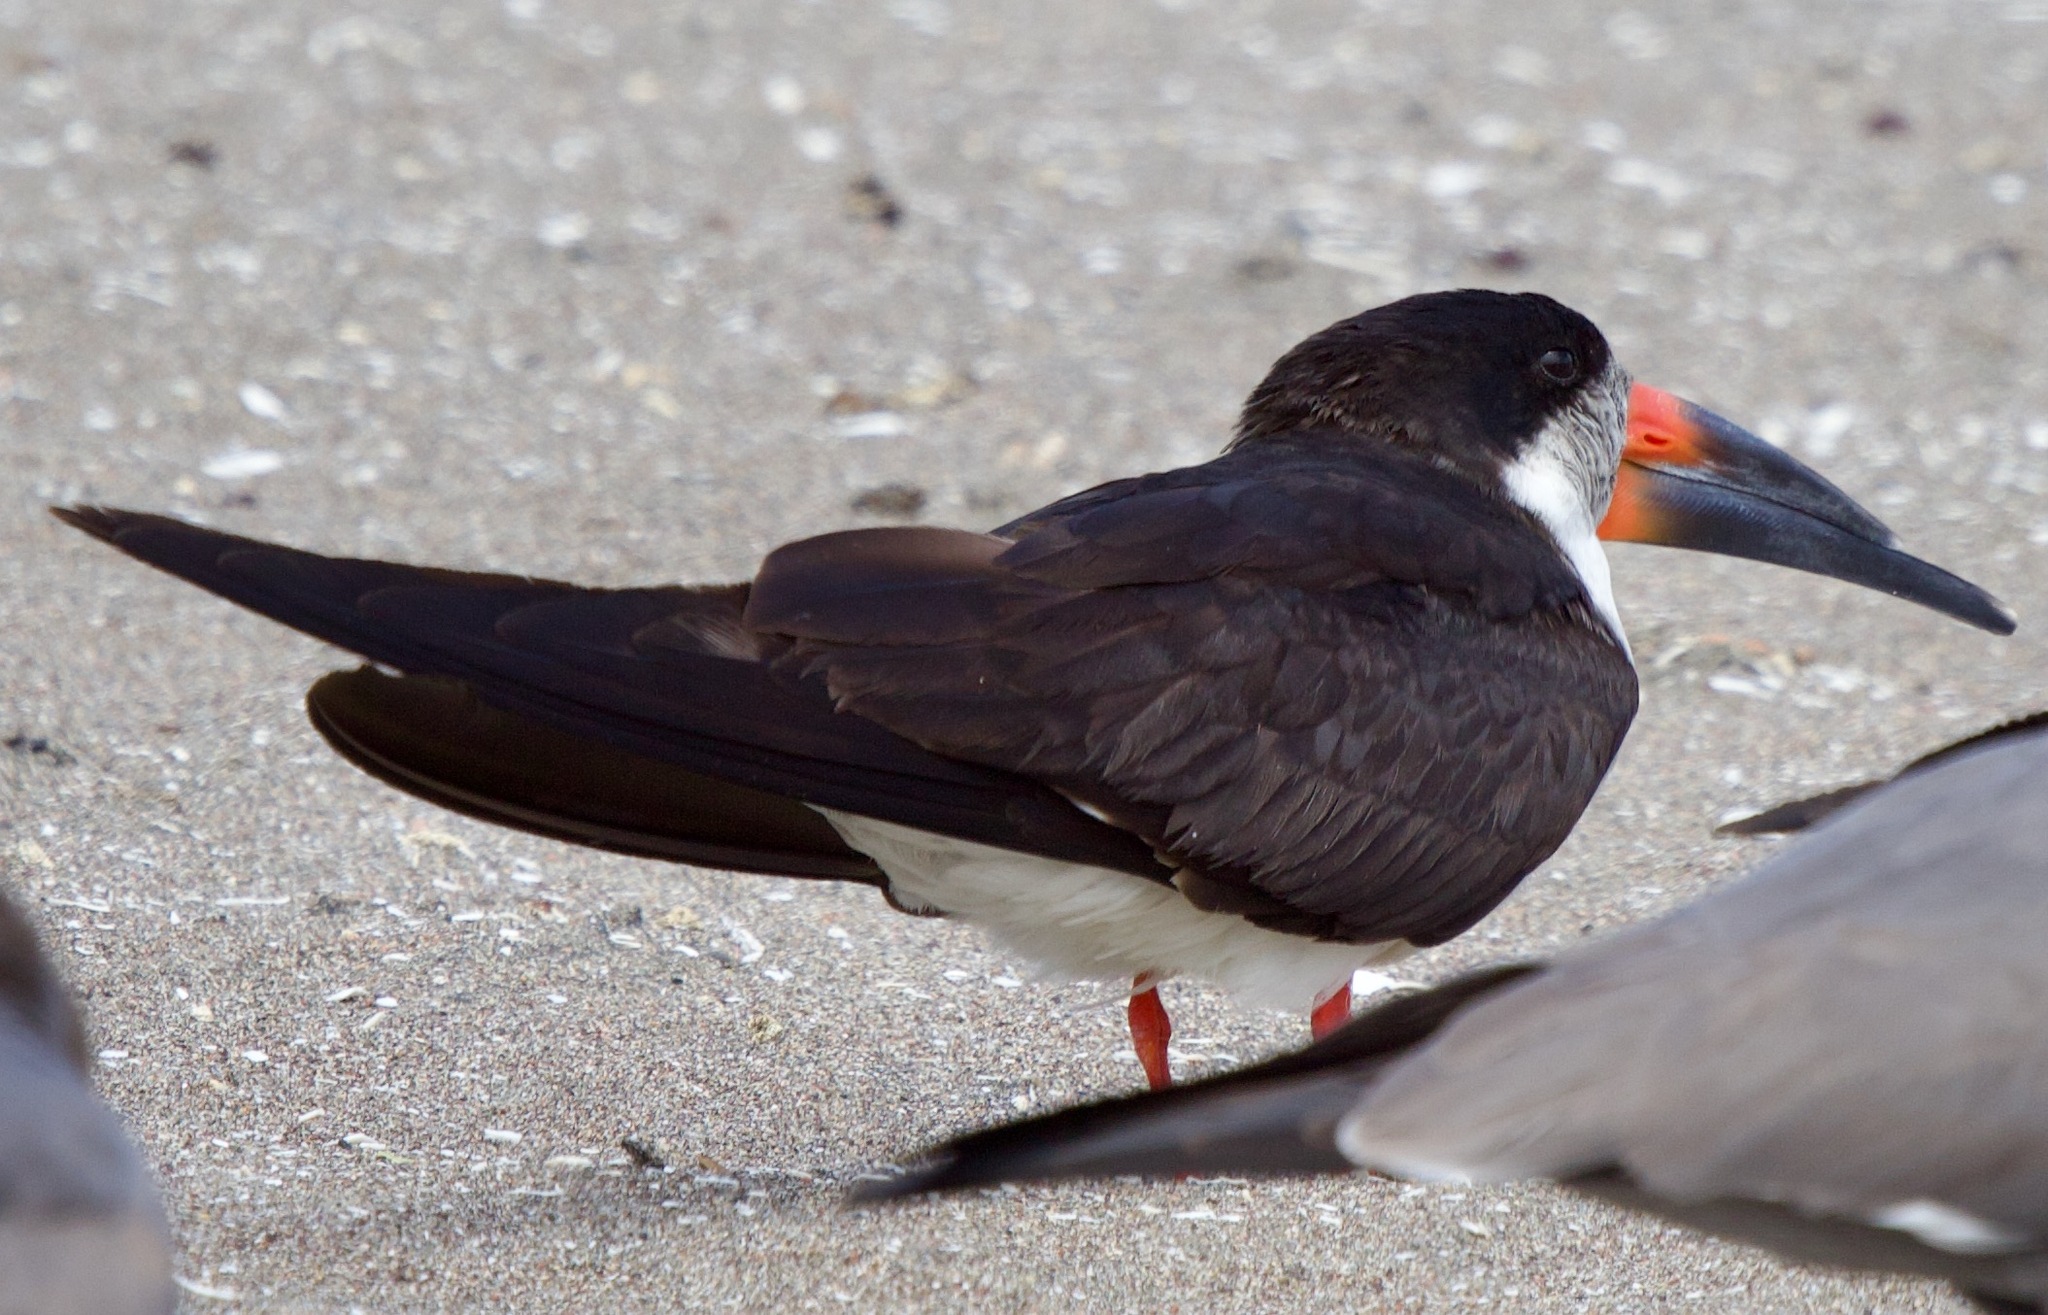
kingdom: Animalia
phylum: Chordata
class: Aves
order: Charadriiformes
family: Laridae
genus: Rynchops
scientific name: Rynchops niger
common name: Black skimmer
